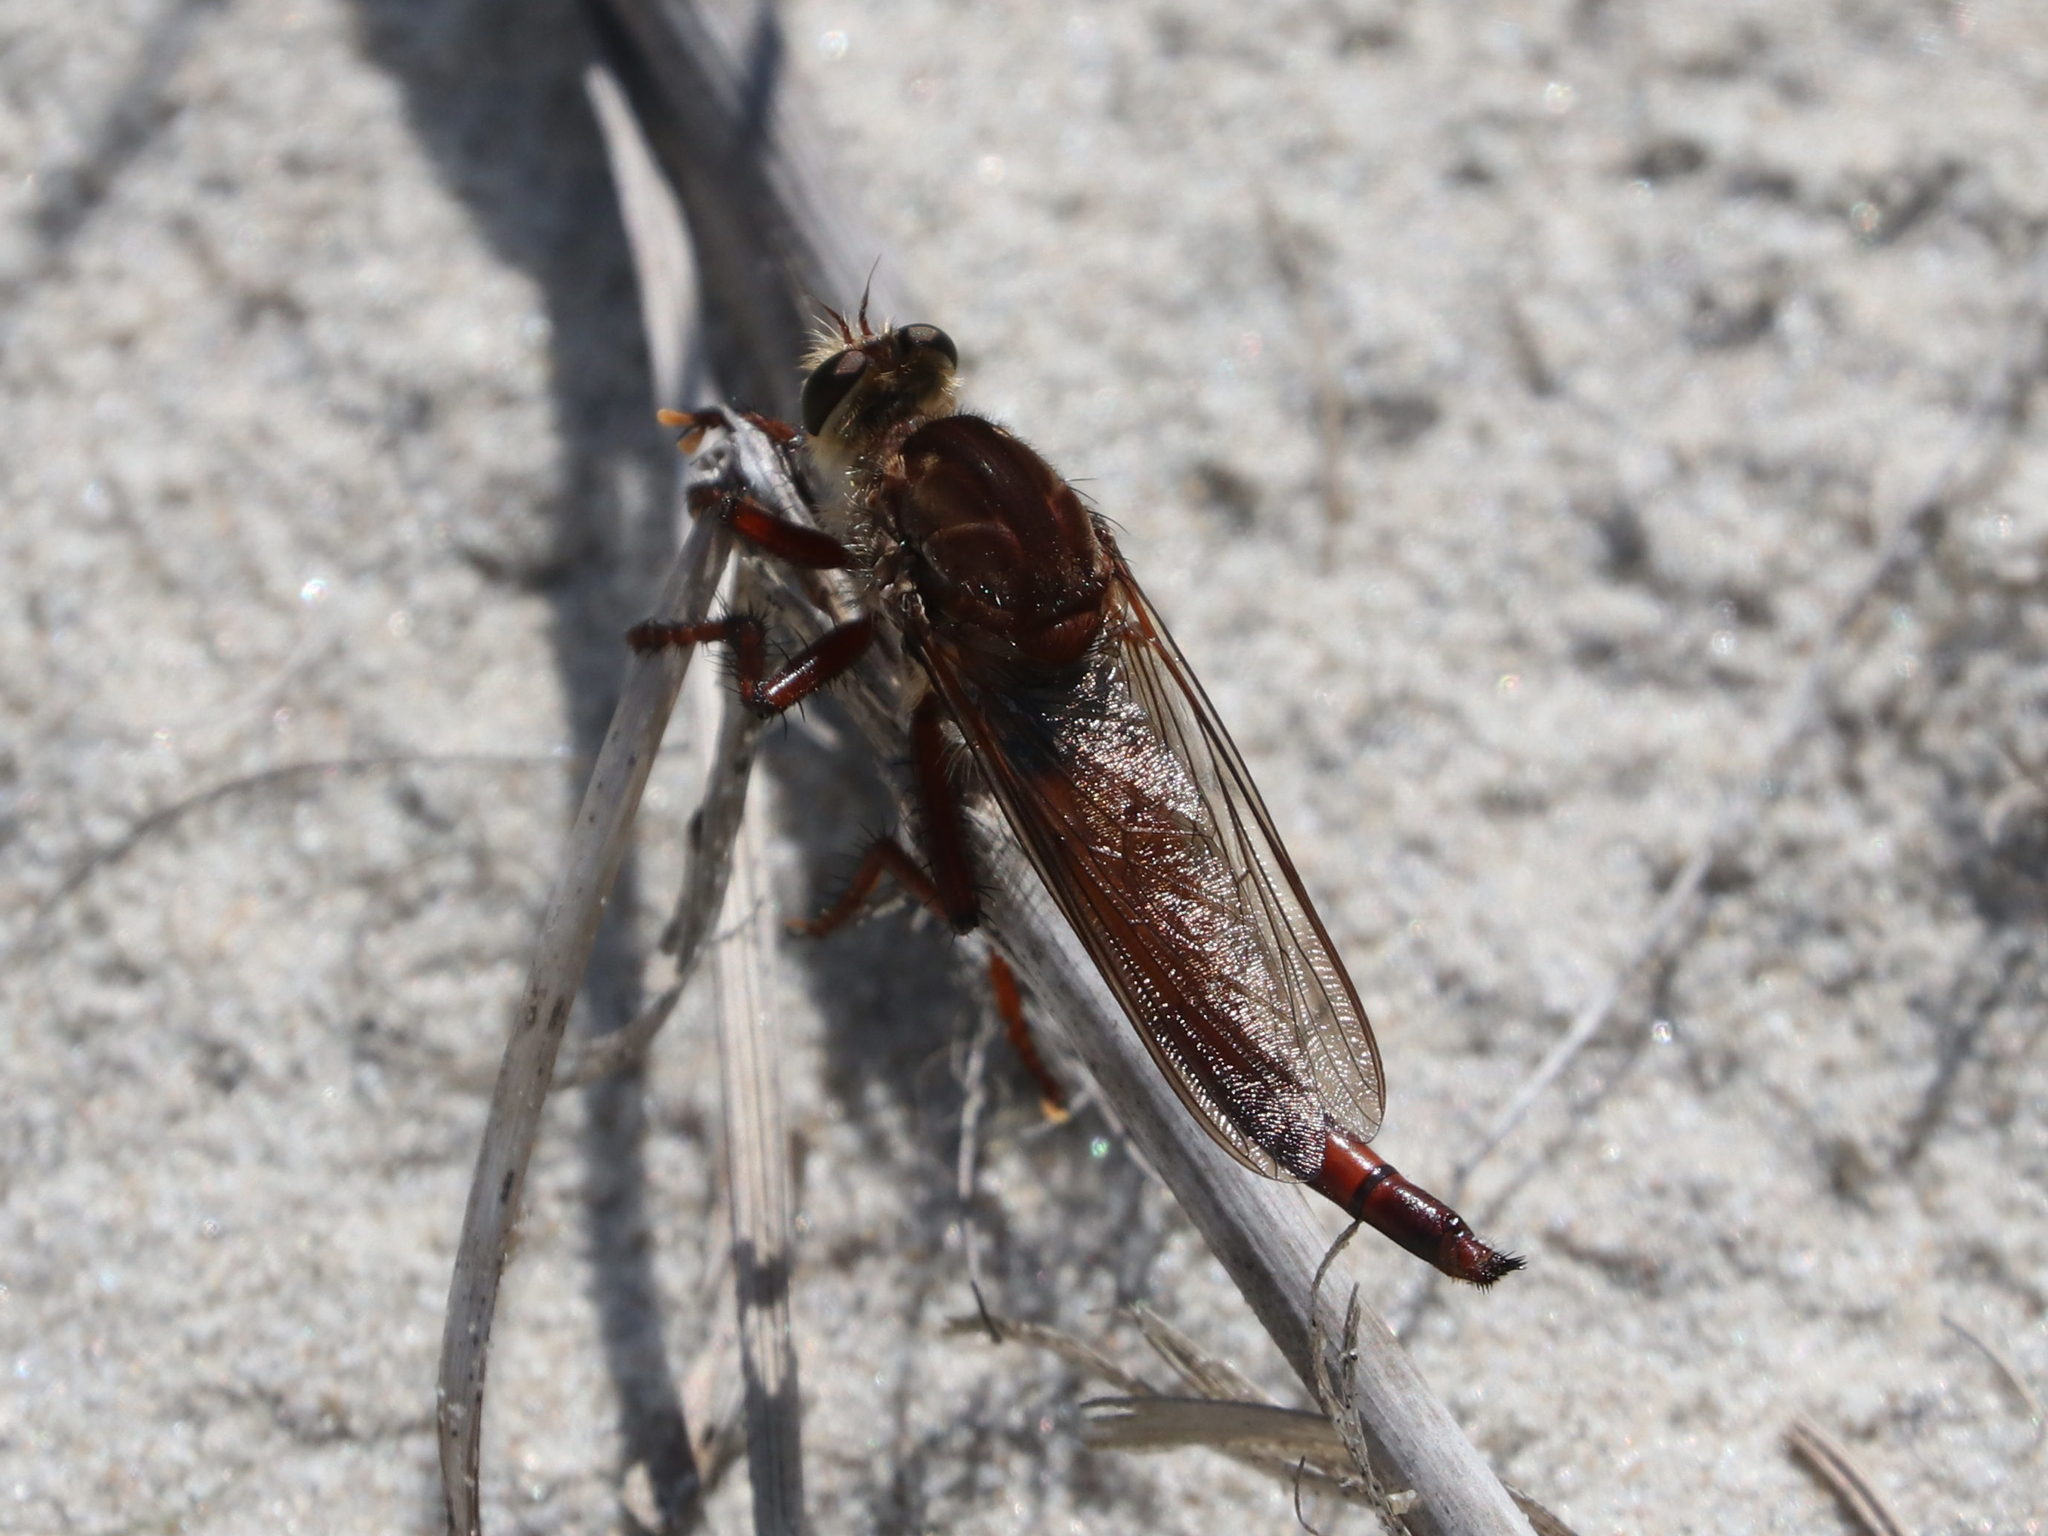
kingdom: Animalia
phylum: Arthropoda
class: Insecta
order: Diptera
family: Asilidae
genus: Proctacanthus
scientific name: Proctacanthus rufus
